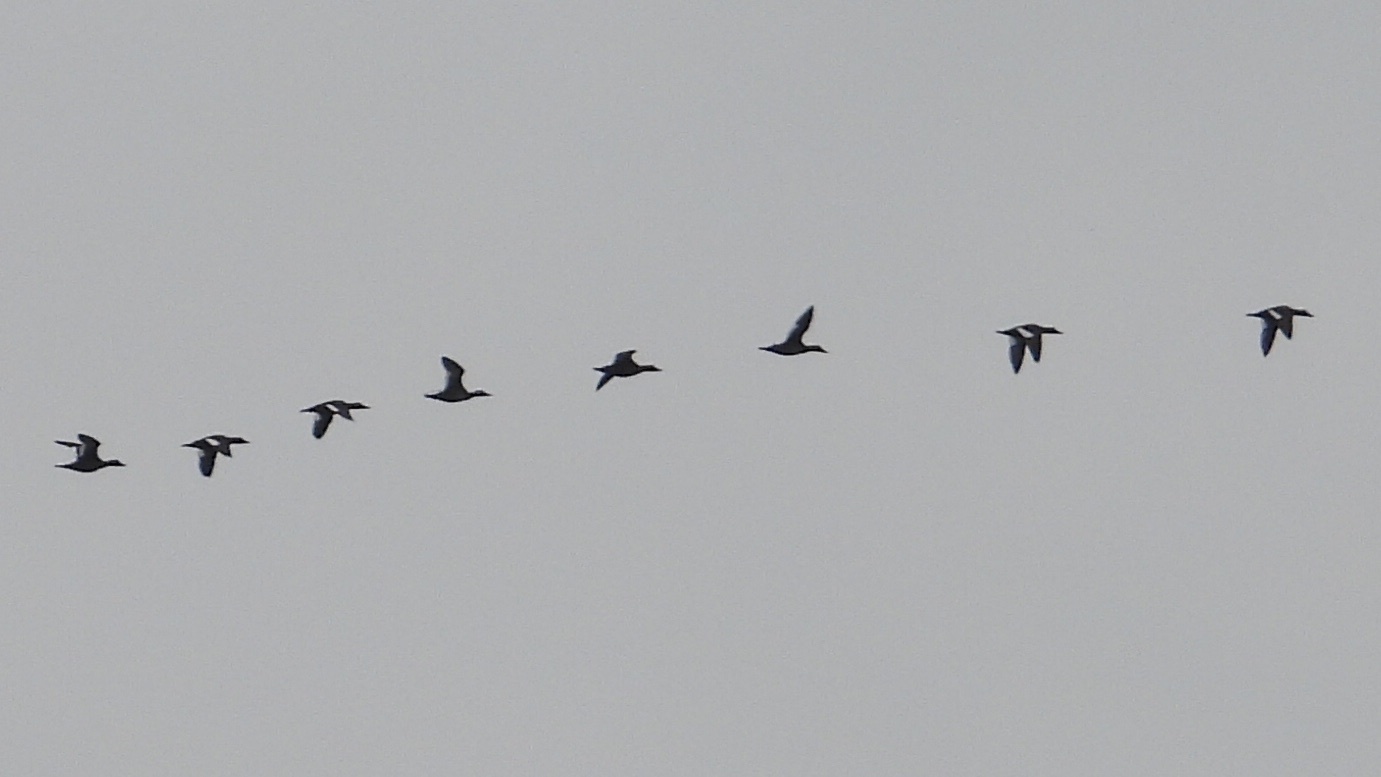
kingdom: Animalia
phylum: Chordata
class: Aves
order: Anseriformes
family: Anatidae
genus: Melanitta
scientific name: Melanitta deglandi
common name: White-winged scoter
